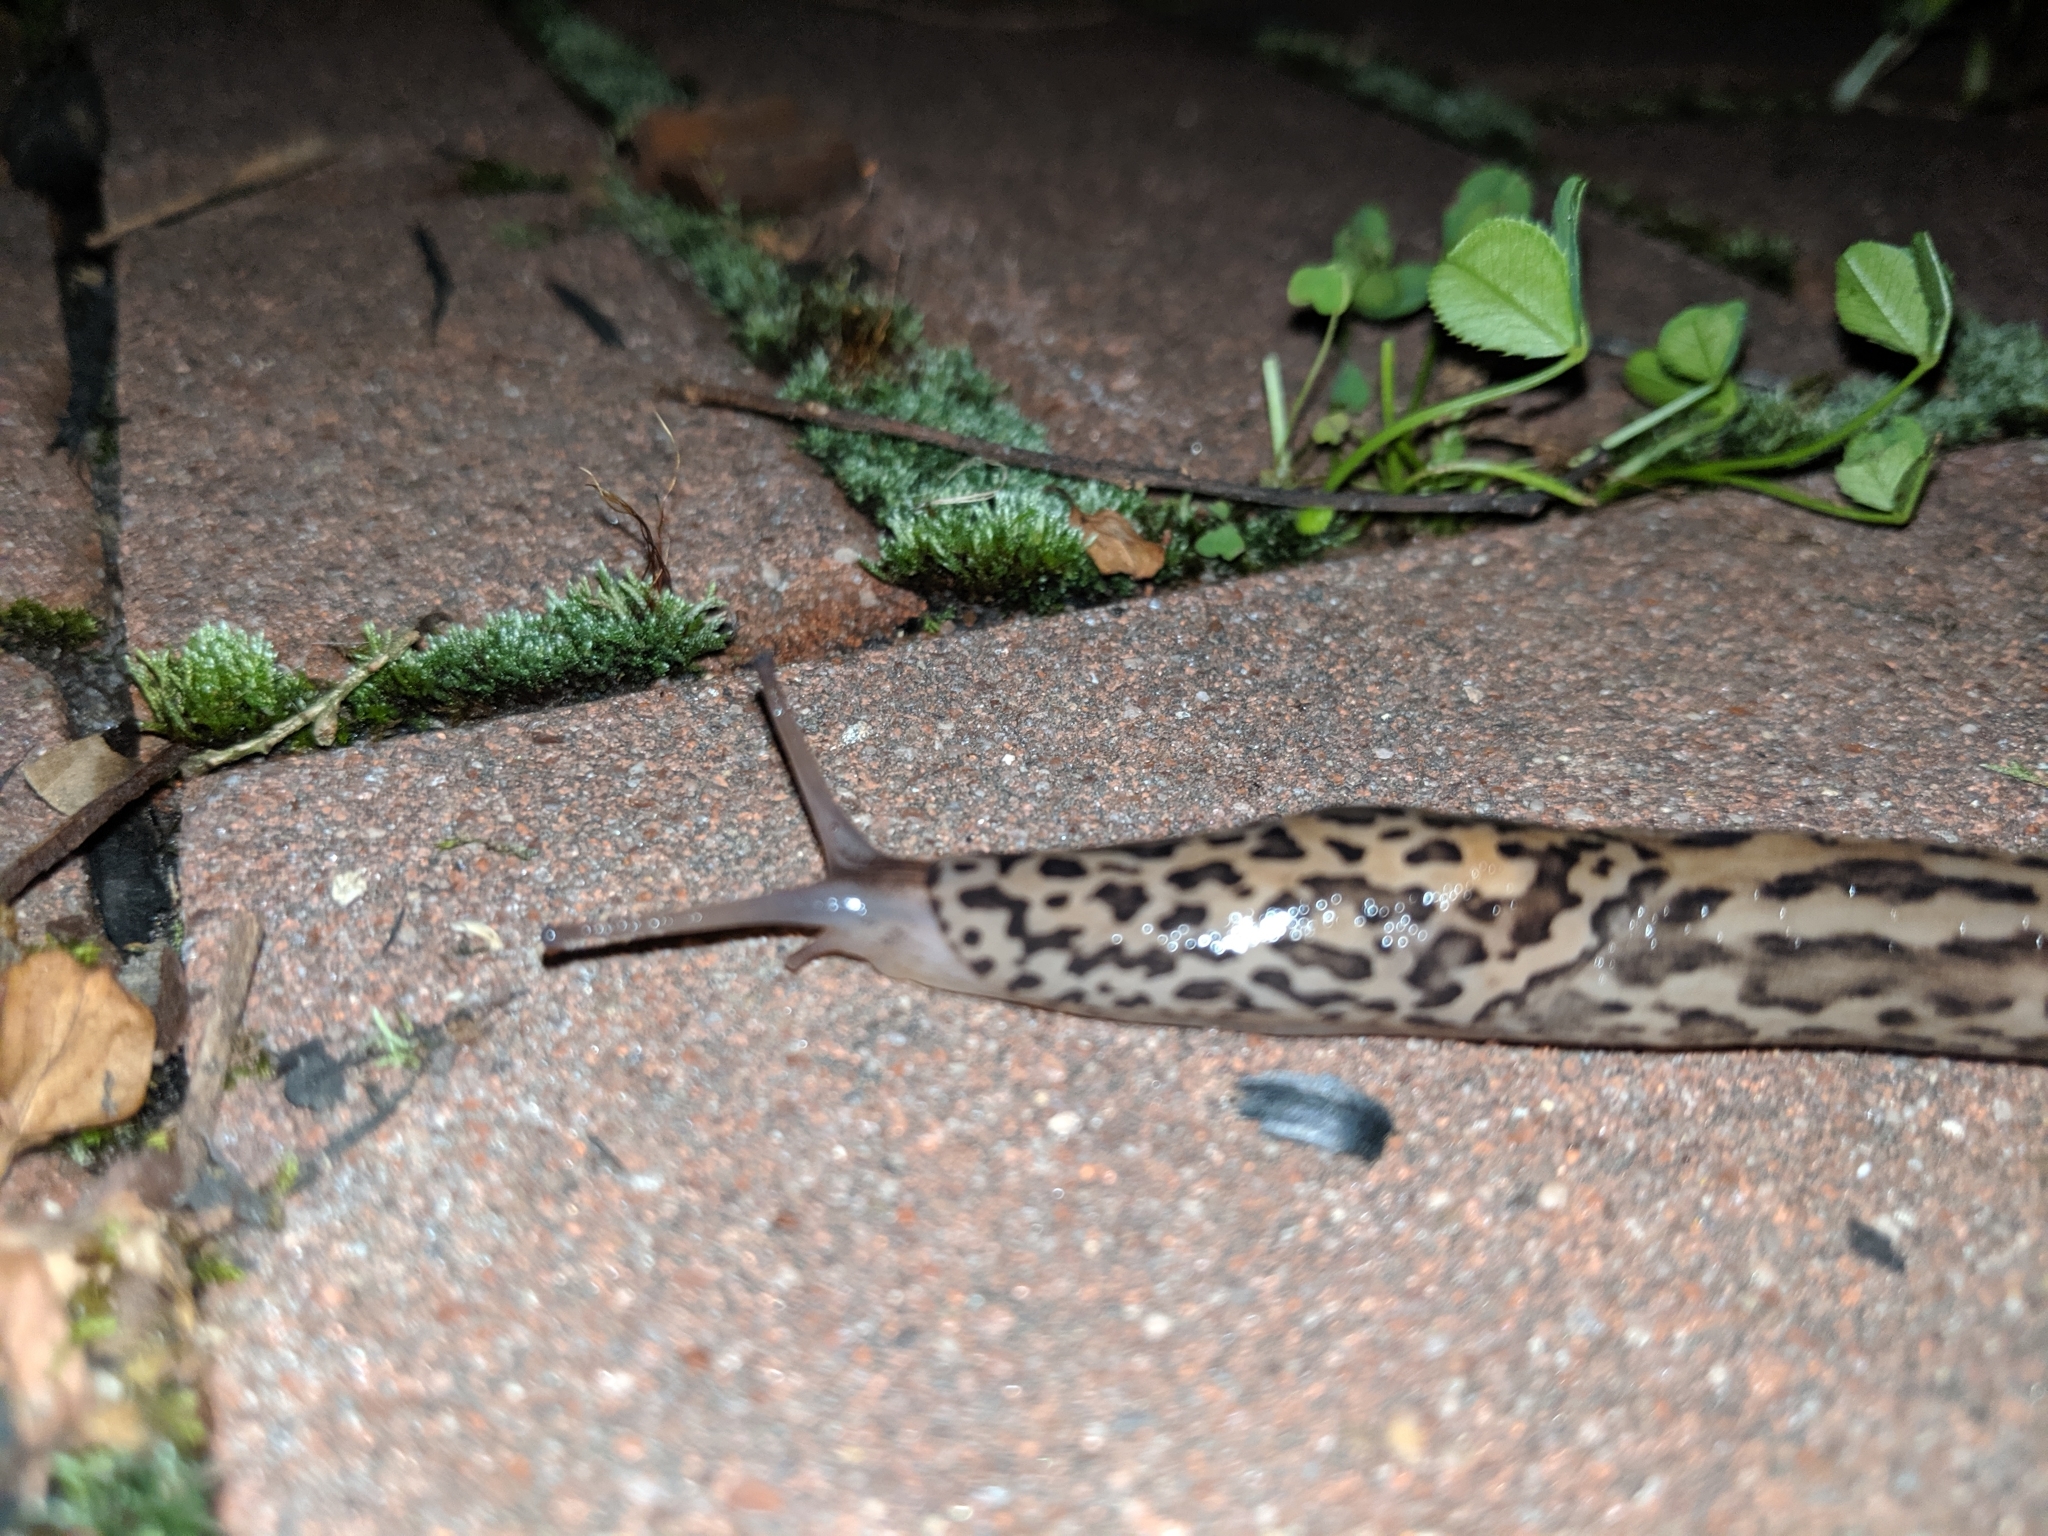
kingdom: Animalia
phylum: Mollusca
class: Gastropoda
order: Stylommatophora
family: Limacidae
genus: Limax
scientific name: Limax maximus
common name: Great grey slug
